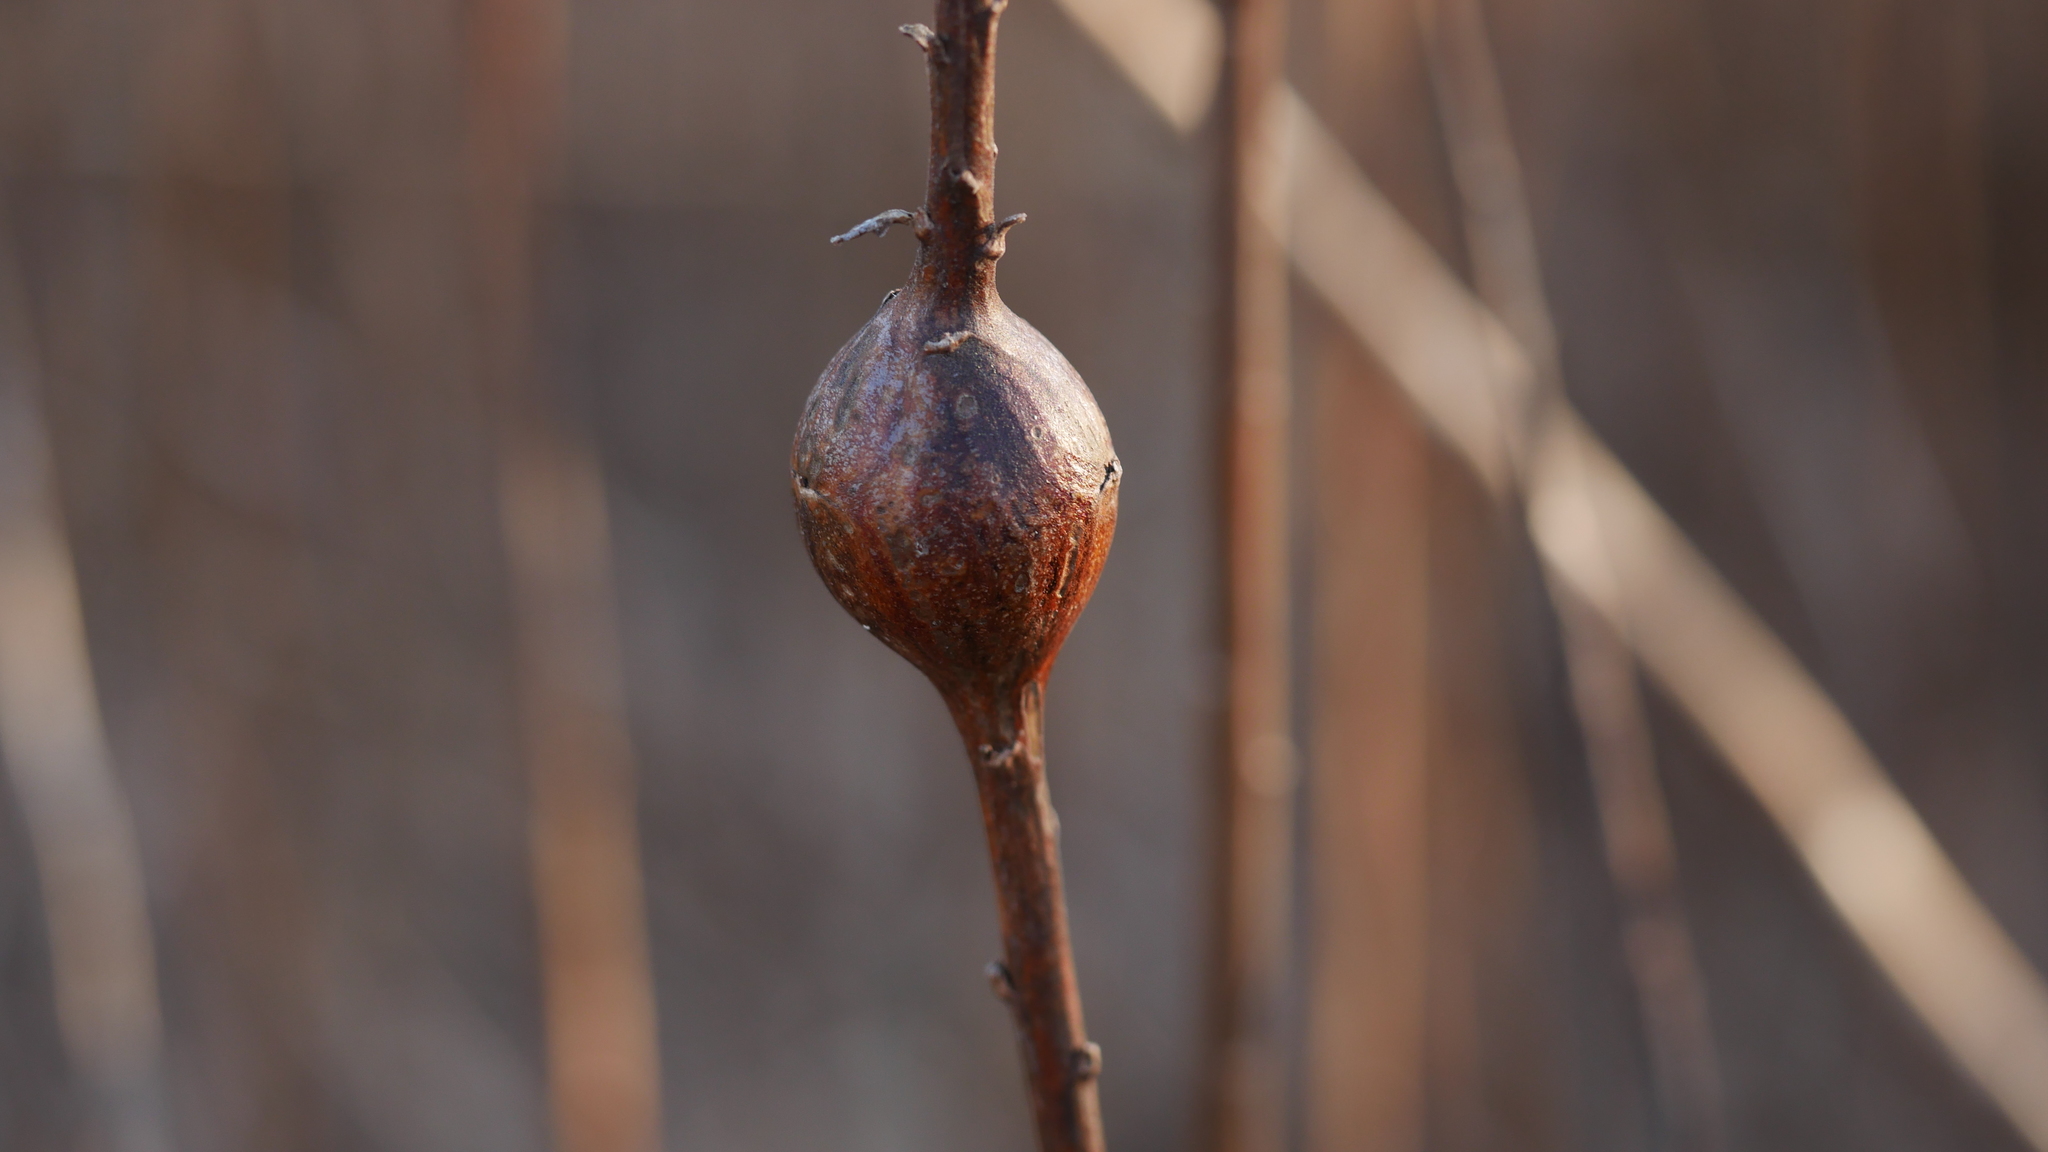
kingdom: Animalia
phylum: Arthropoda
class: Insecta
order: Diptera
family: Tephritidae
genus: Eurosta
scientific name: Eurosta solidaginis
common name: Goldenrod gall fly
